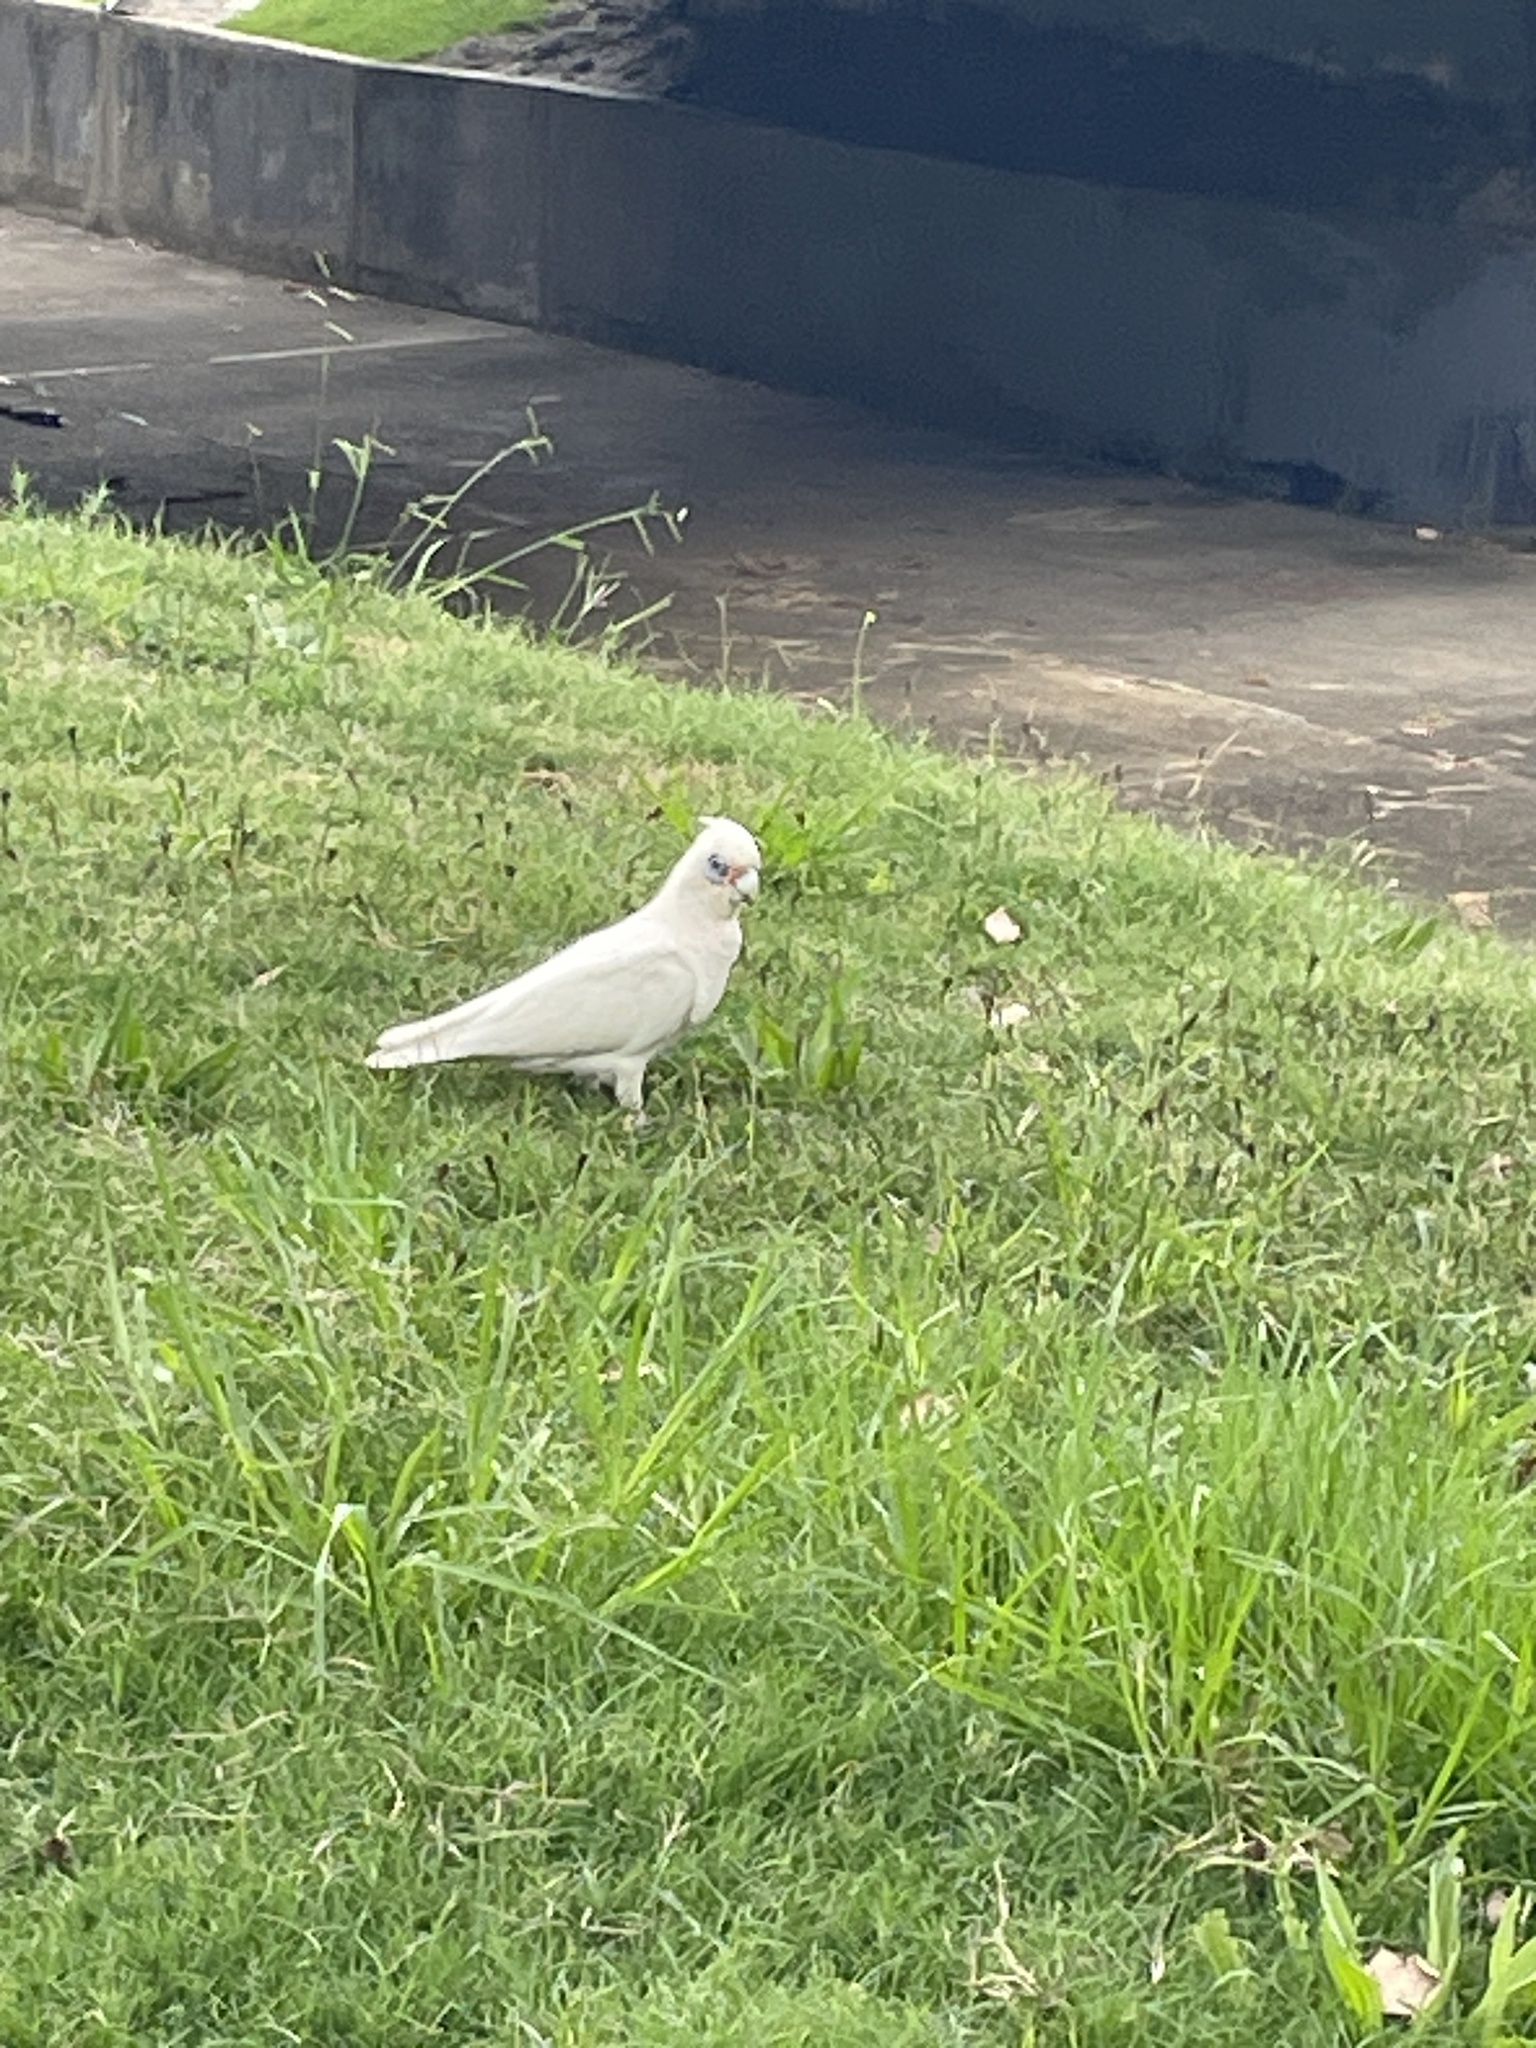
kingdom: Animalia
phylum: Chordata
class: Aves
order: Psittaciformes
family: Psittacidae
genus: Cacatua
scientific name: Cacatua sanguinea
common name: Little corella
